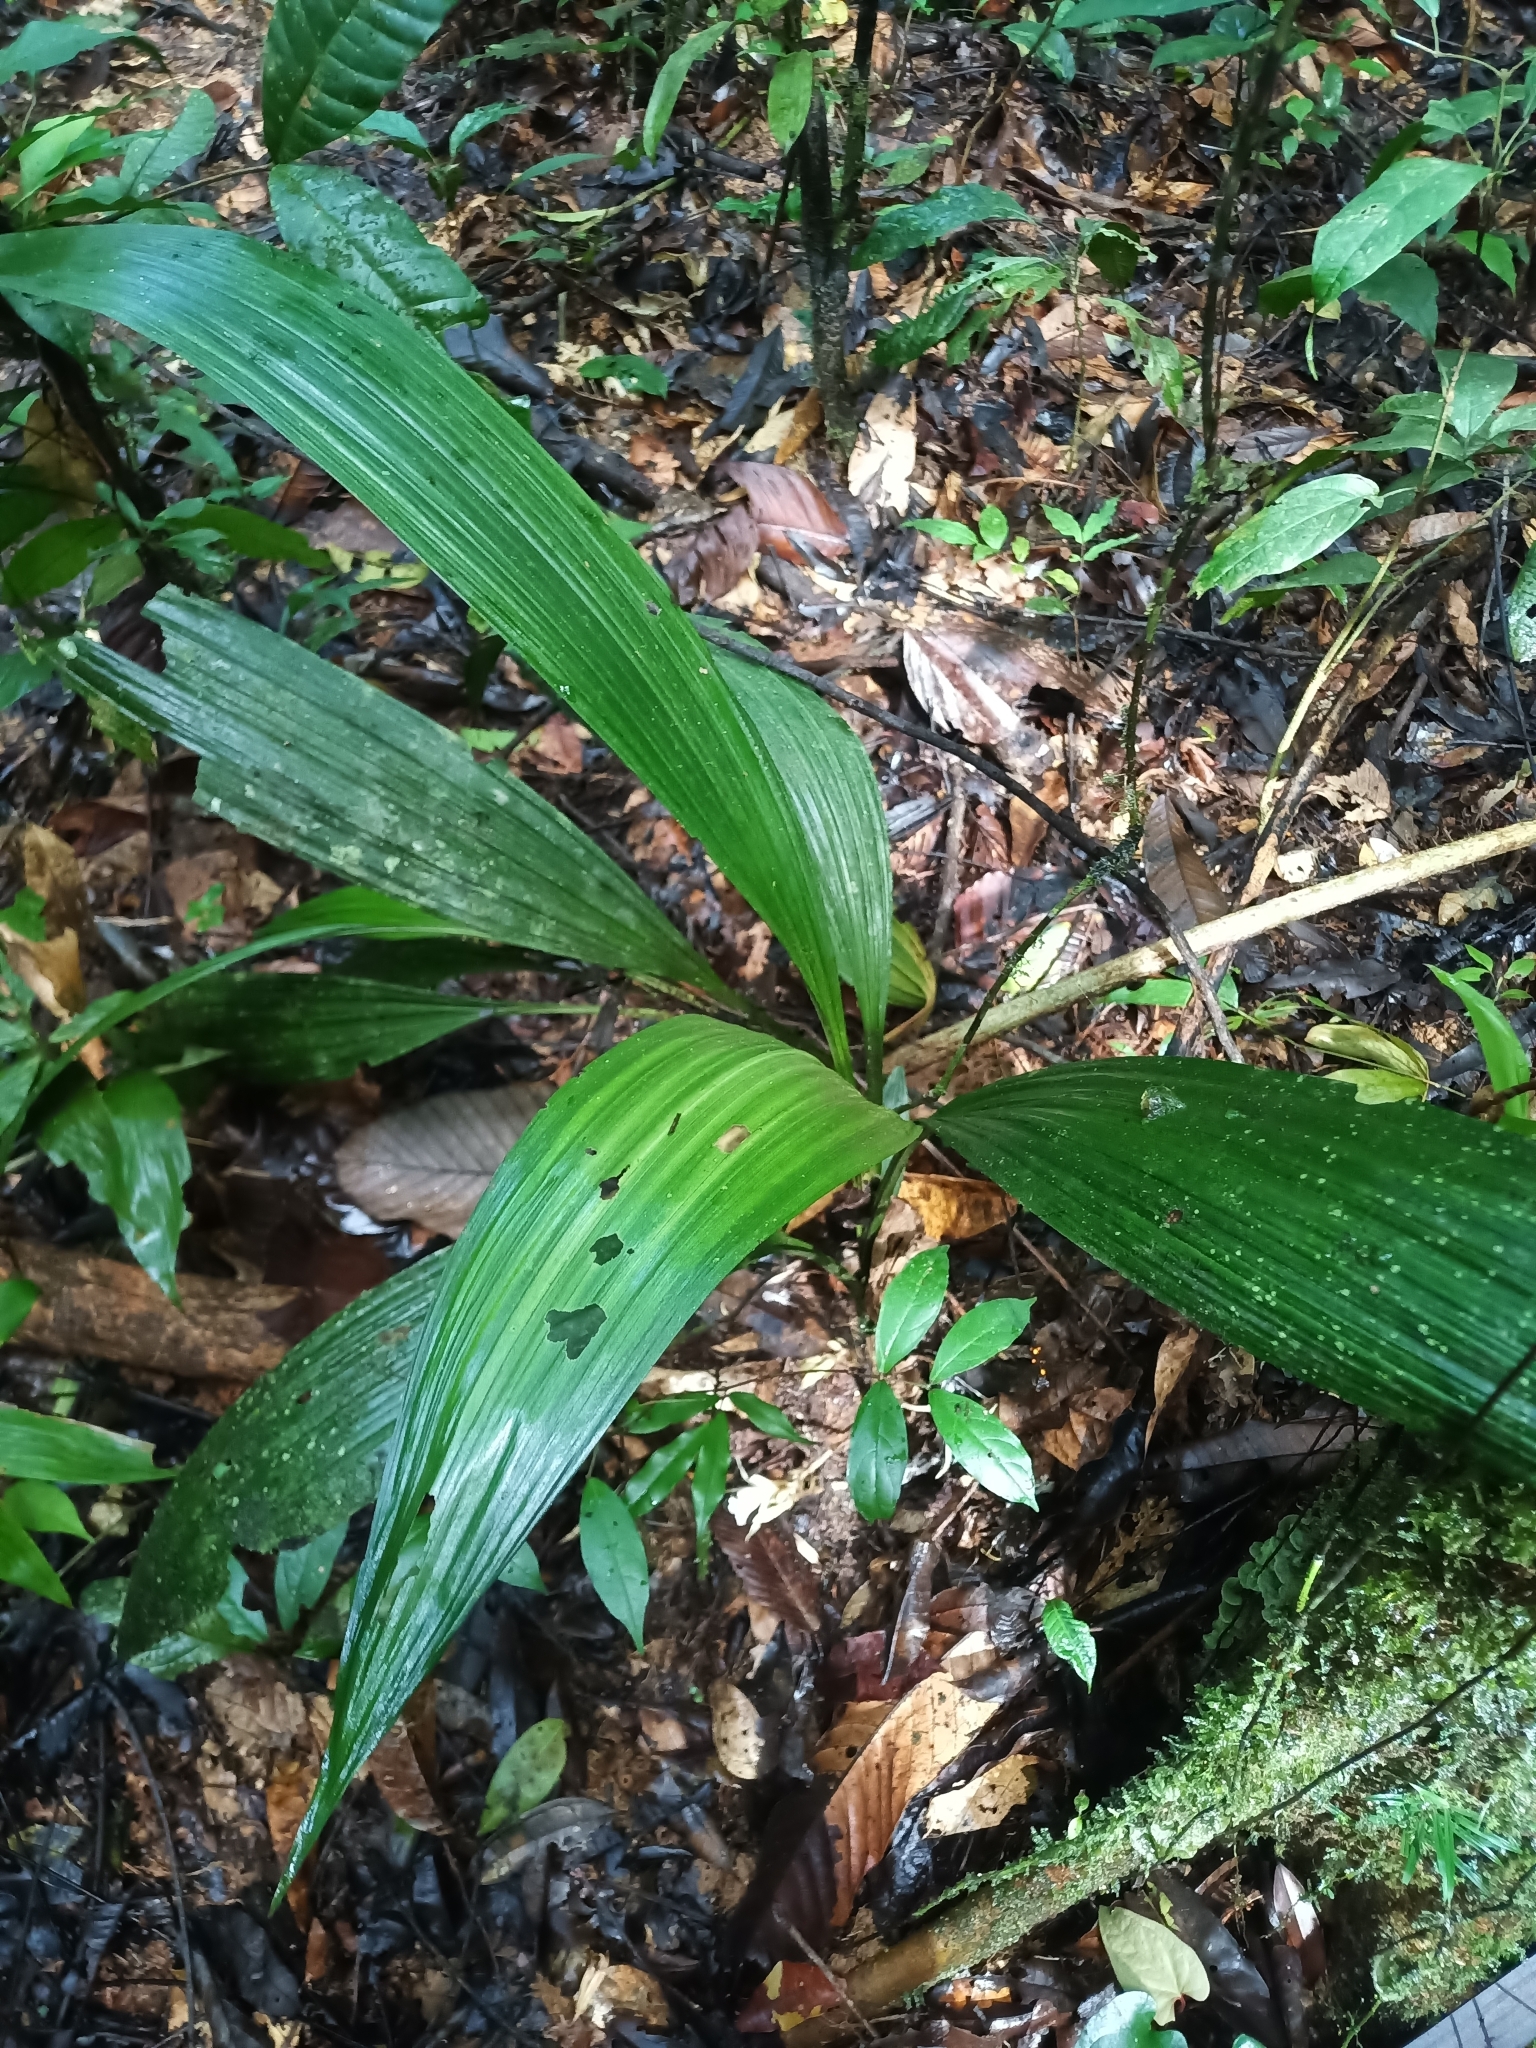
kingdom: Plantae
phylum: Tracheophyta
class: Liliopsida
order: Asparagales
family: Orchidaceae
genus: Palmorchis
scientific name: Palmorchis pubescens
